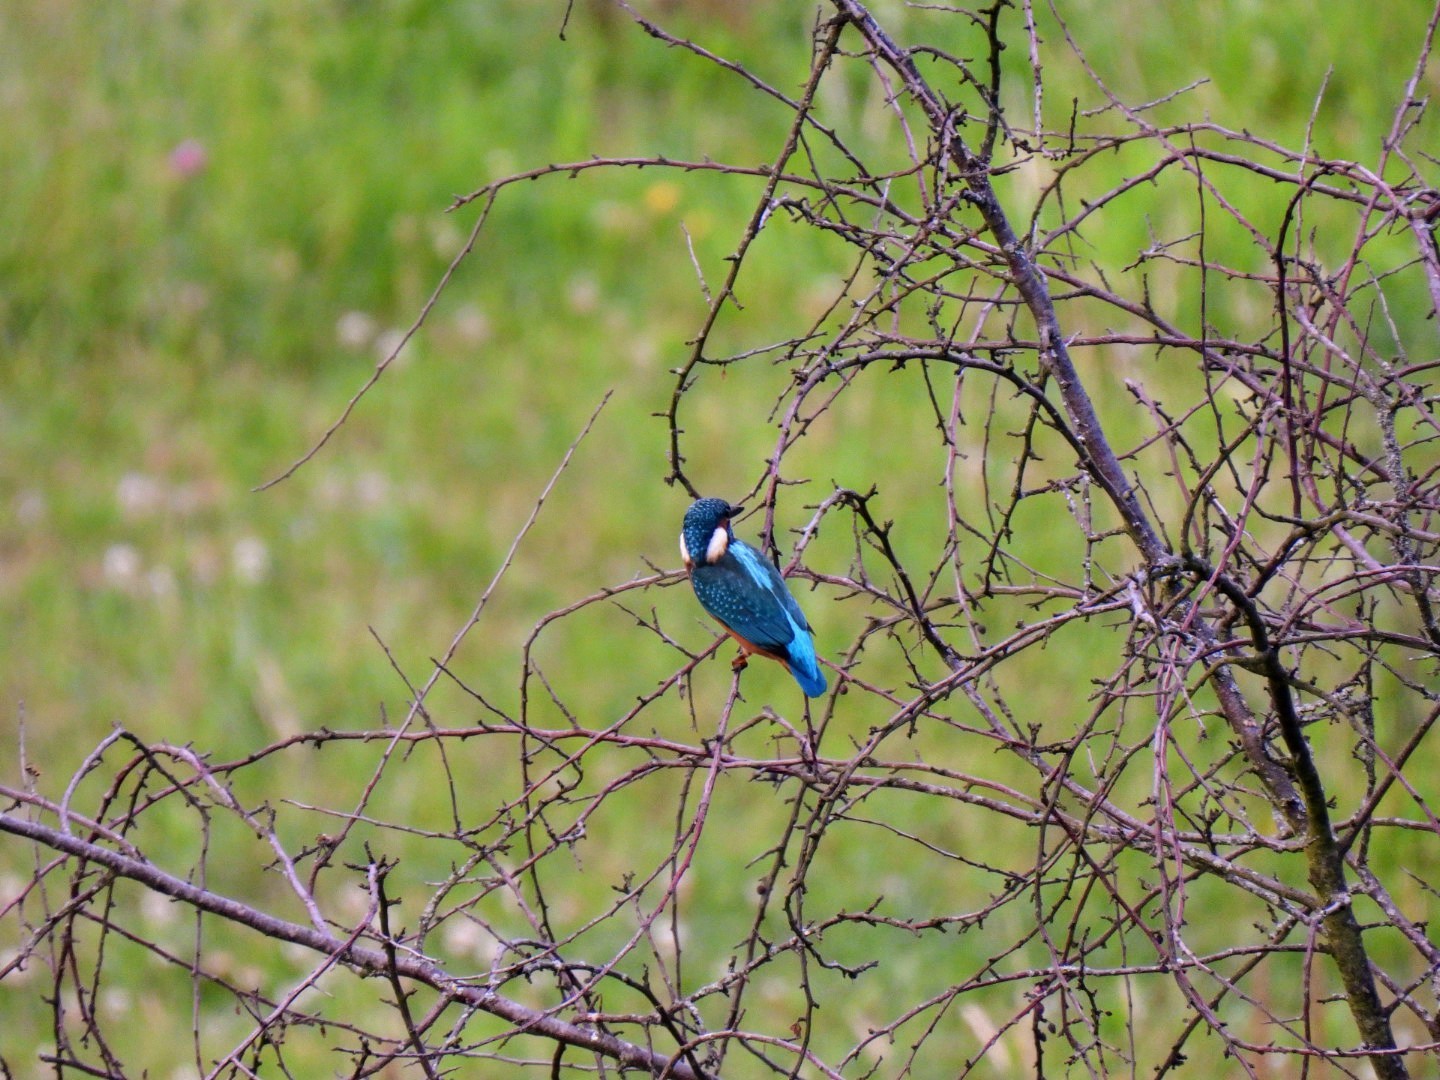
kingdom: Animalia
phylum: Chordata
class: Aves
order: Coraciiformes
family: Alcedinidae
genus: Alcedo
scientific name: Alcedo atthis
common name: Common kingfisher
